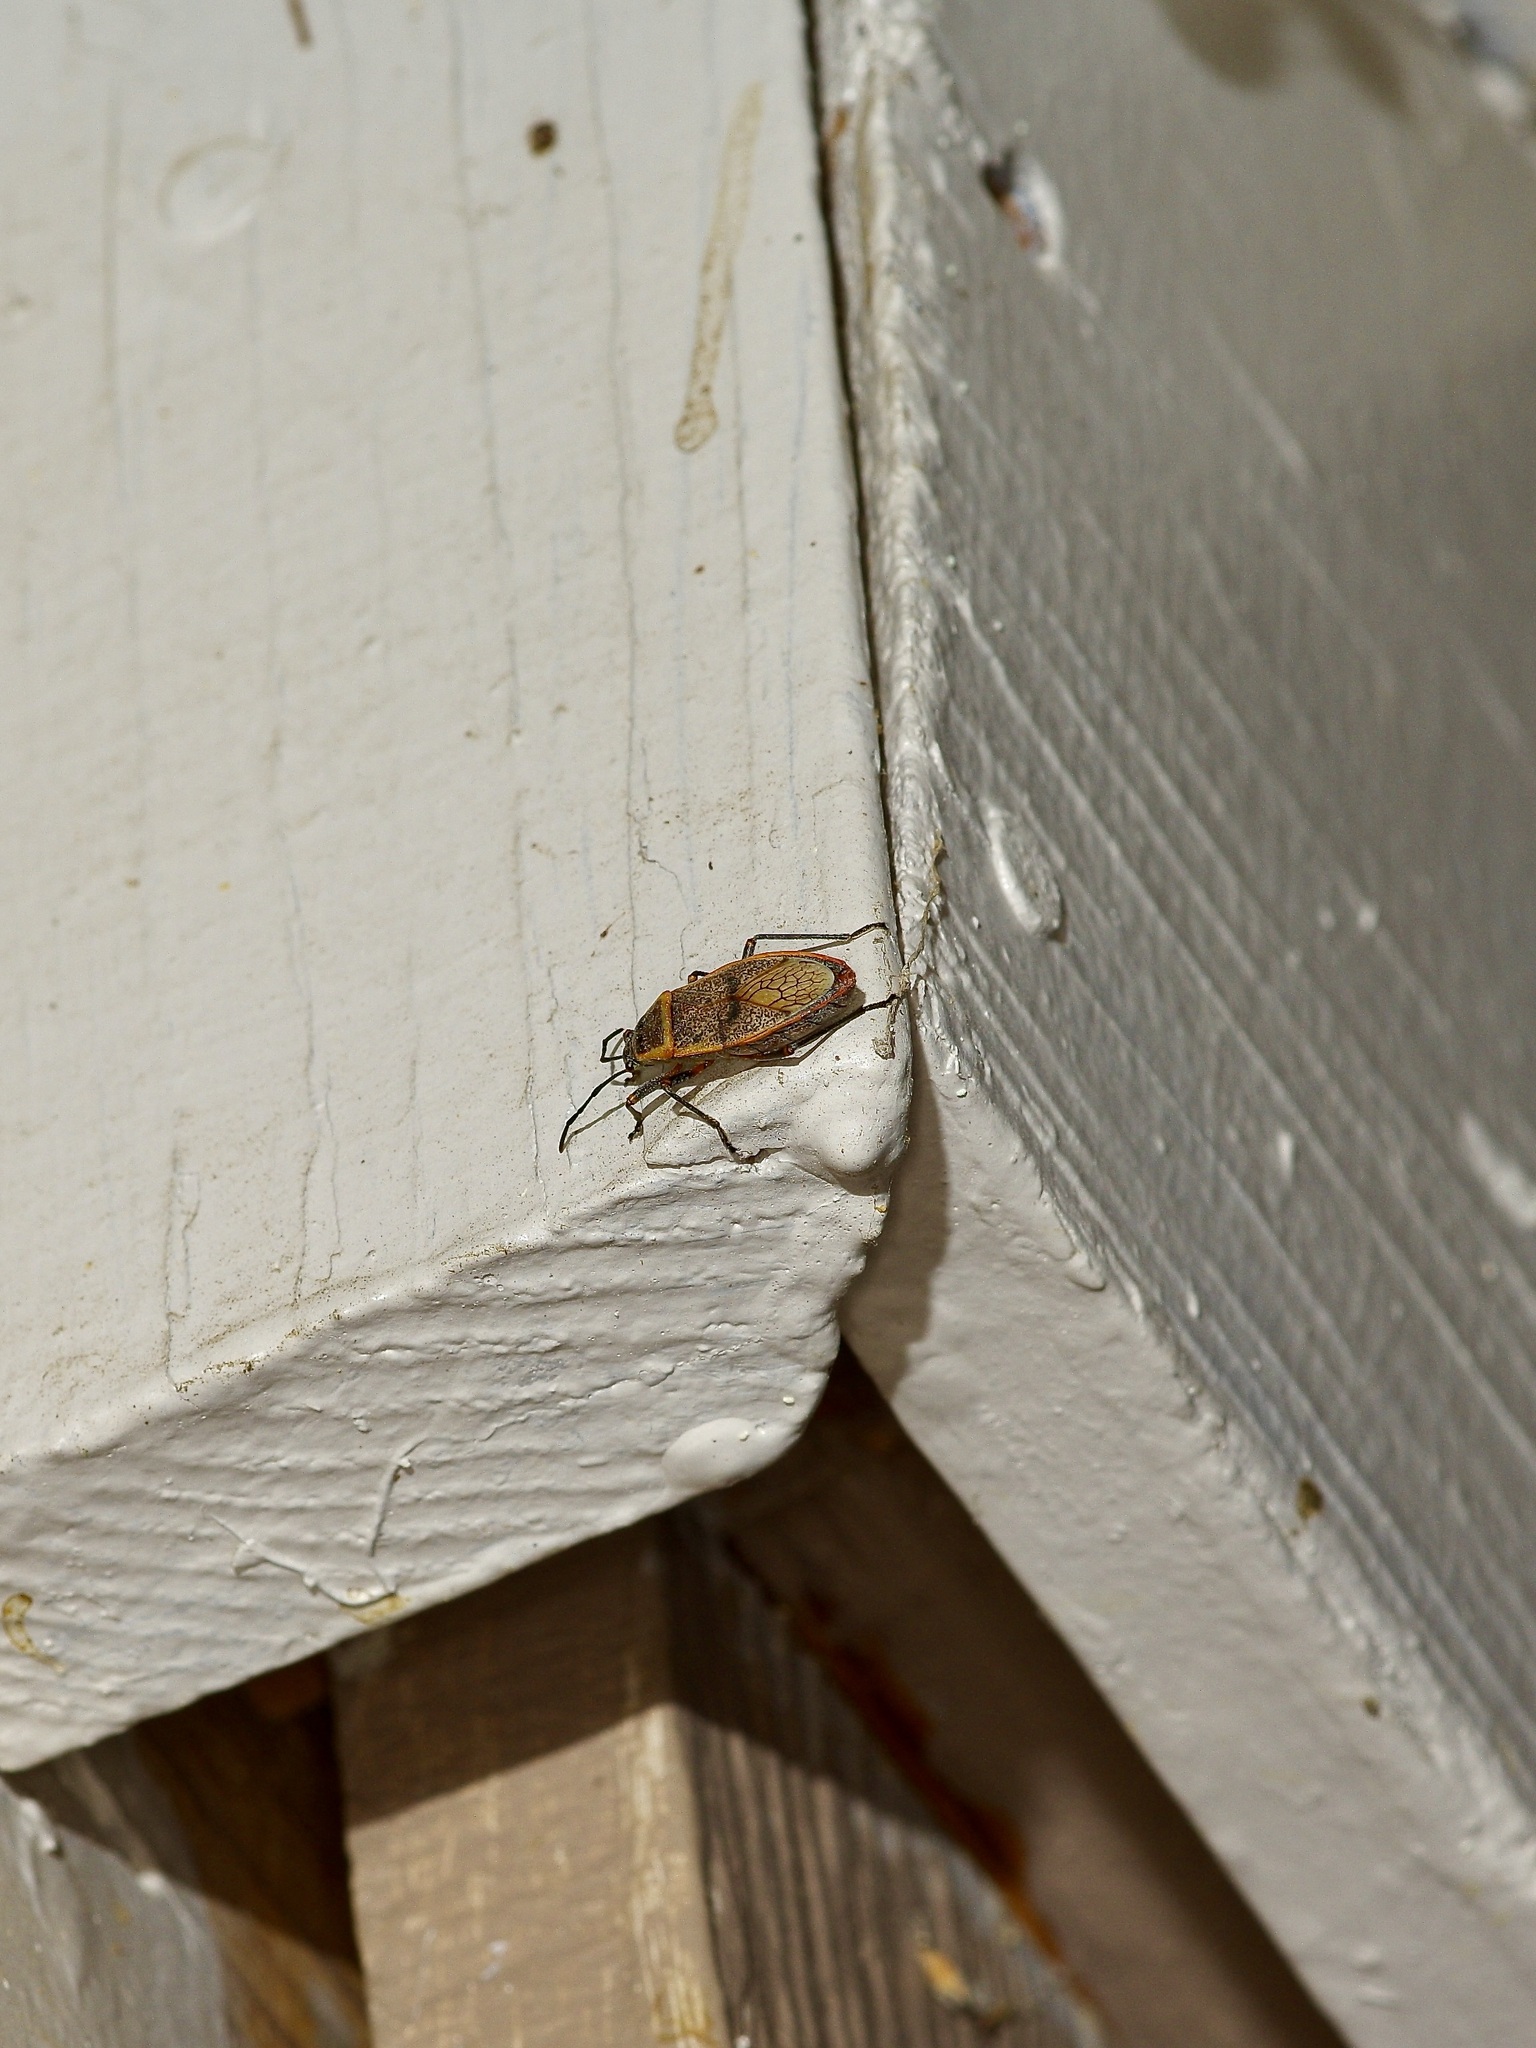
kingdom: Animalia
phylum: Arthropoda
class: Insecta
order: Hemiptera
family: Largidae
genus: Largus
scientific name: Largus maculatus
